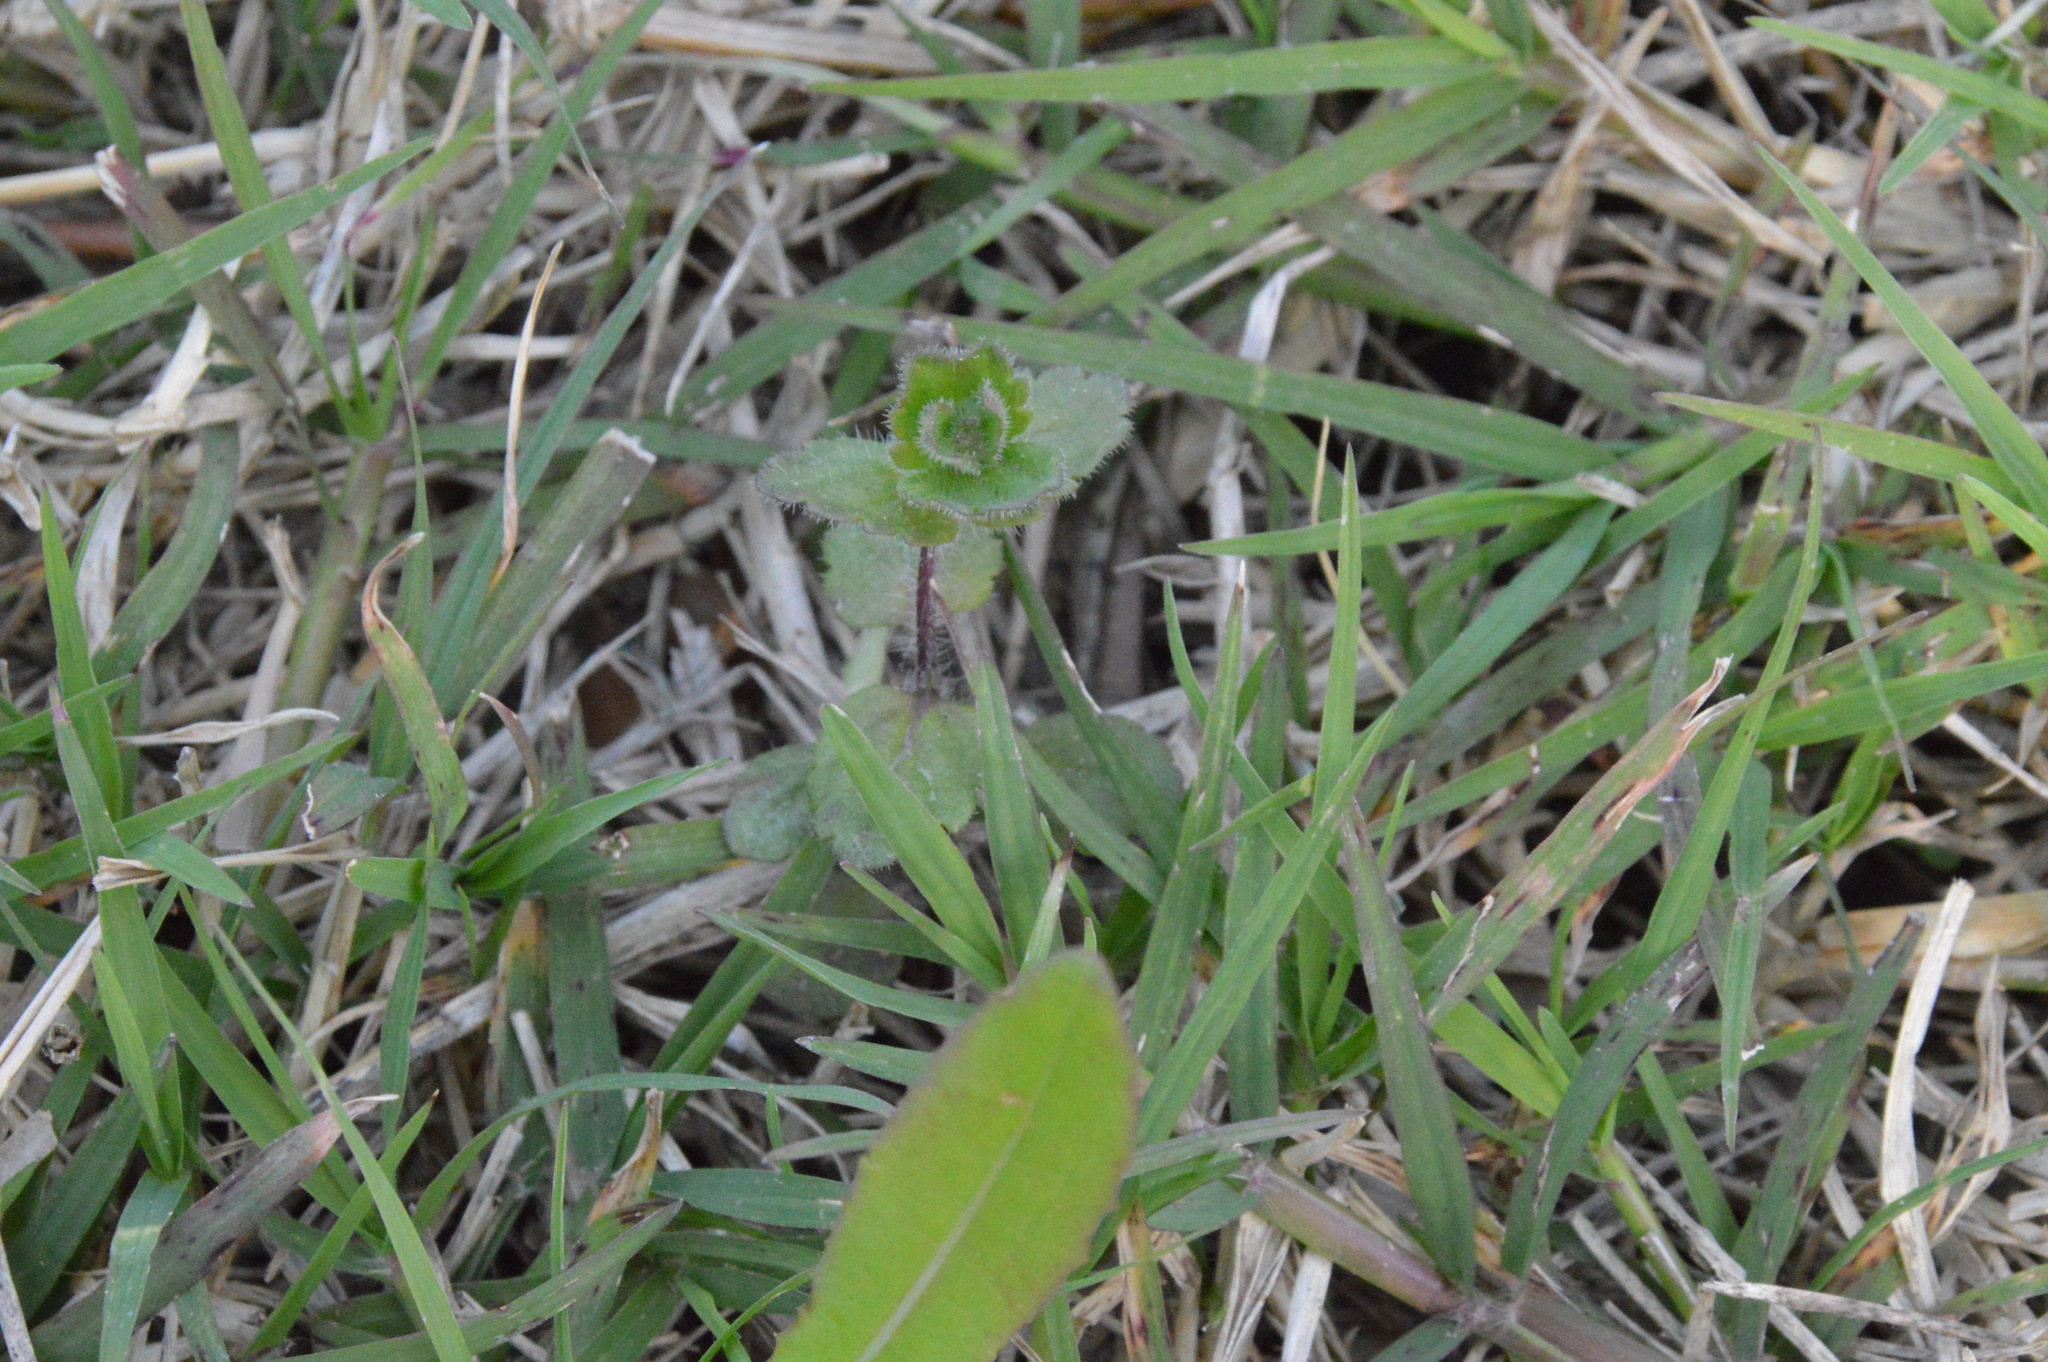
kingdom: Plantae
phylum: Tracheophyta
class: Magnoliopsida
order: Lamiales
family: Plantaginaceae
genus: Veronica
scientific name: Veronica arvensis
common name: Corn speedwell
